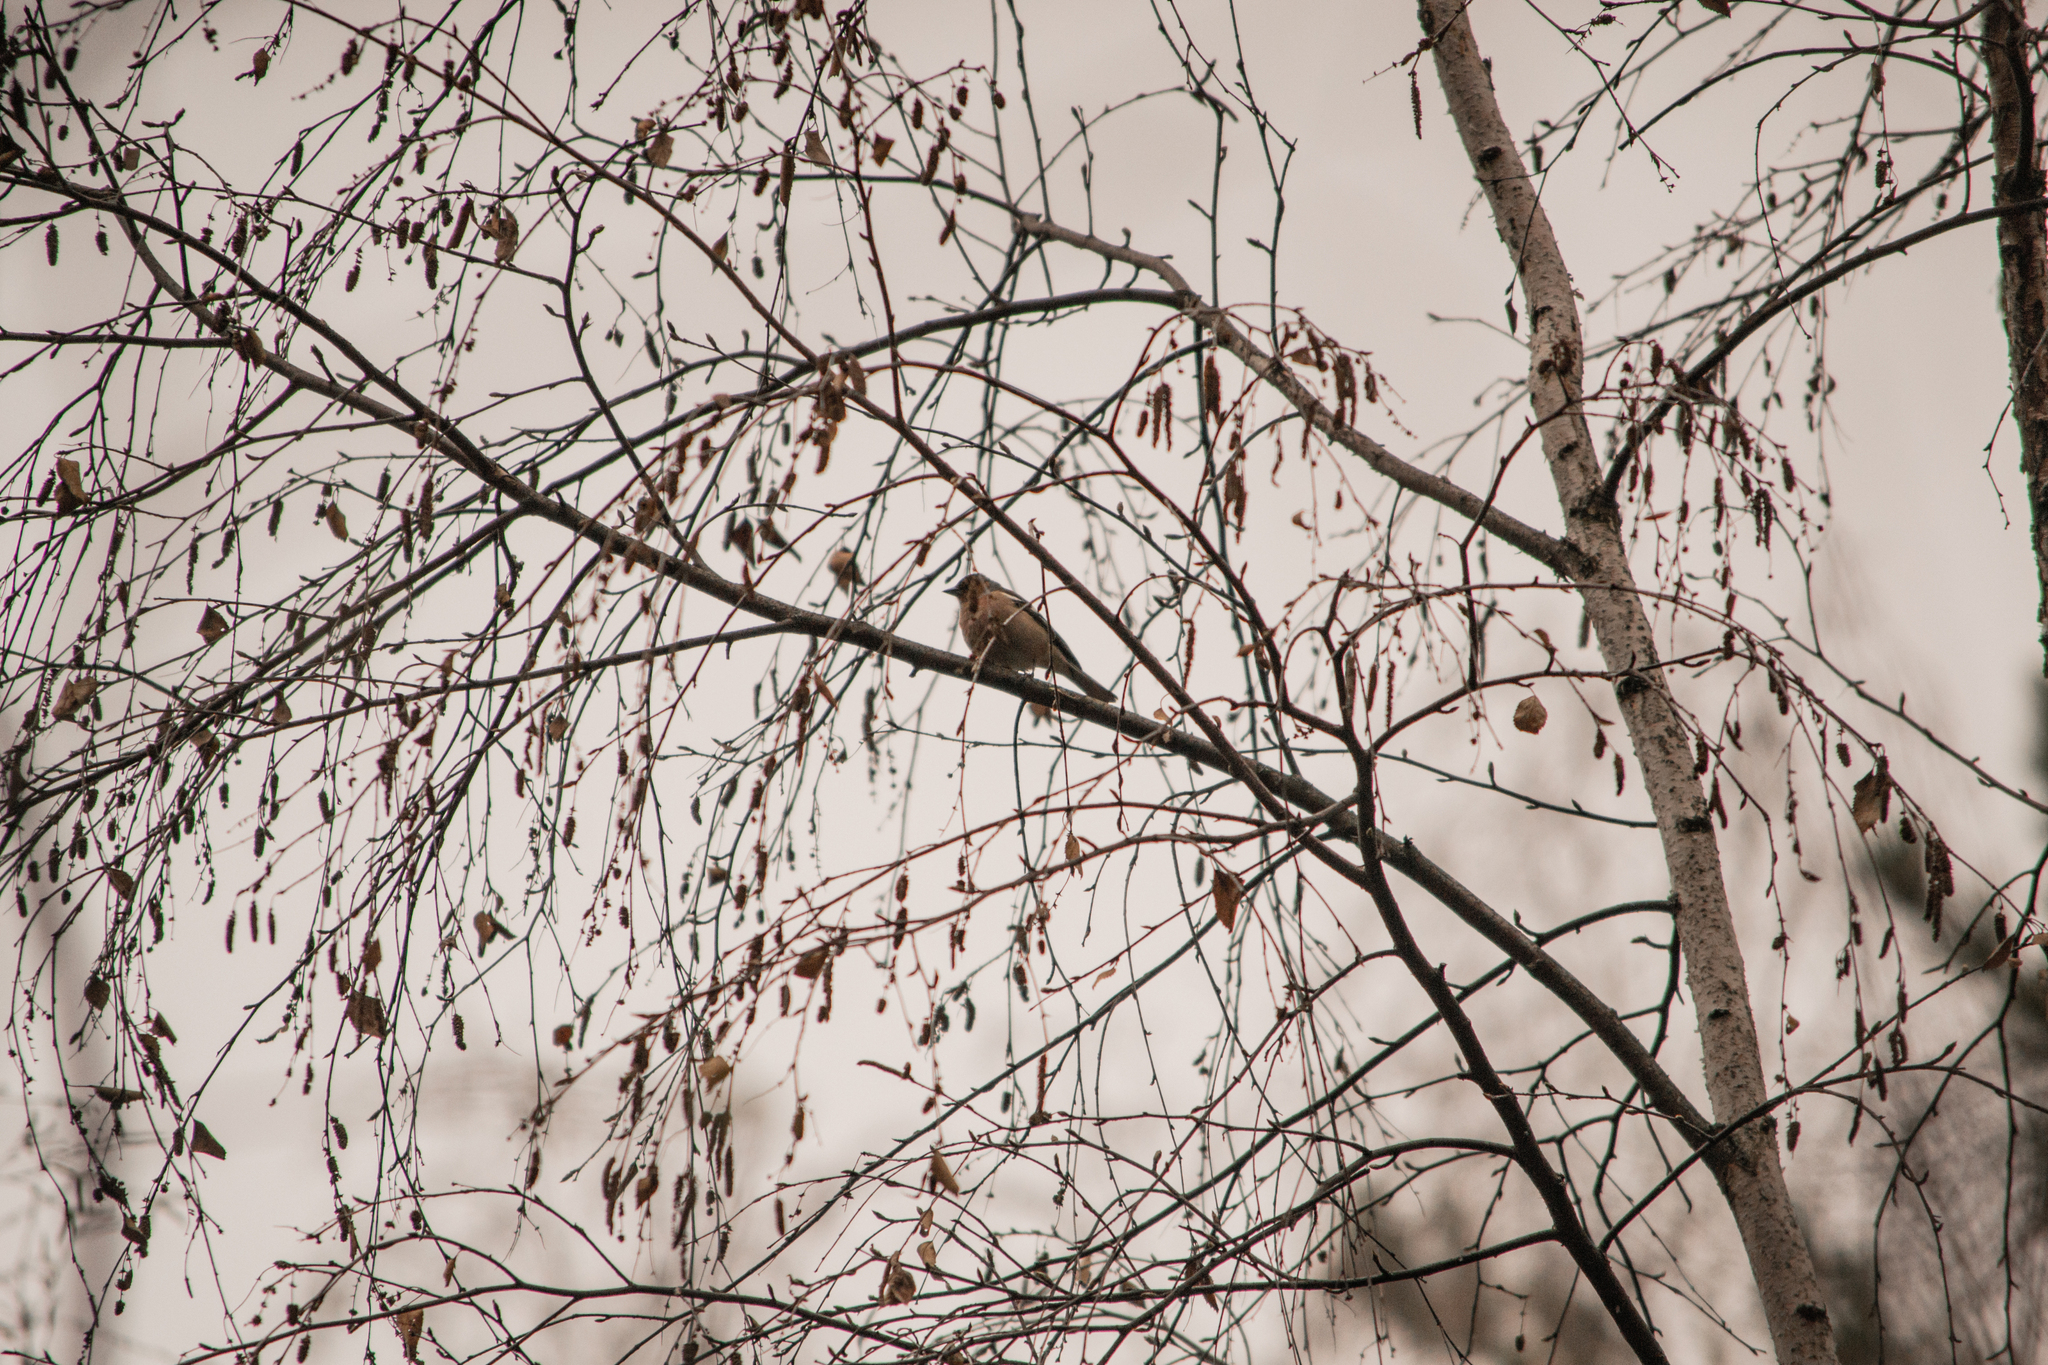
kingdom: Animalia
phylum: Chordata
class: Aves
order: Passeriformes
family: Fringillidae
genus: Fringilla
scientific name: Fringilla coelebs
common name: Common chaffinch
